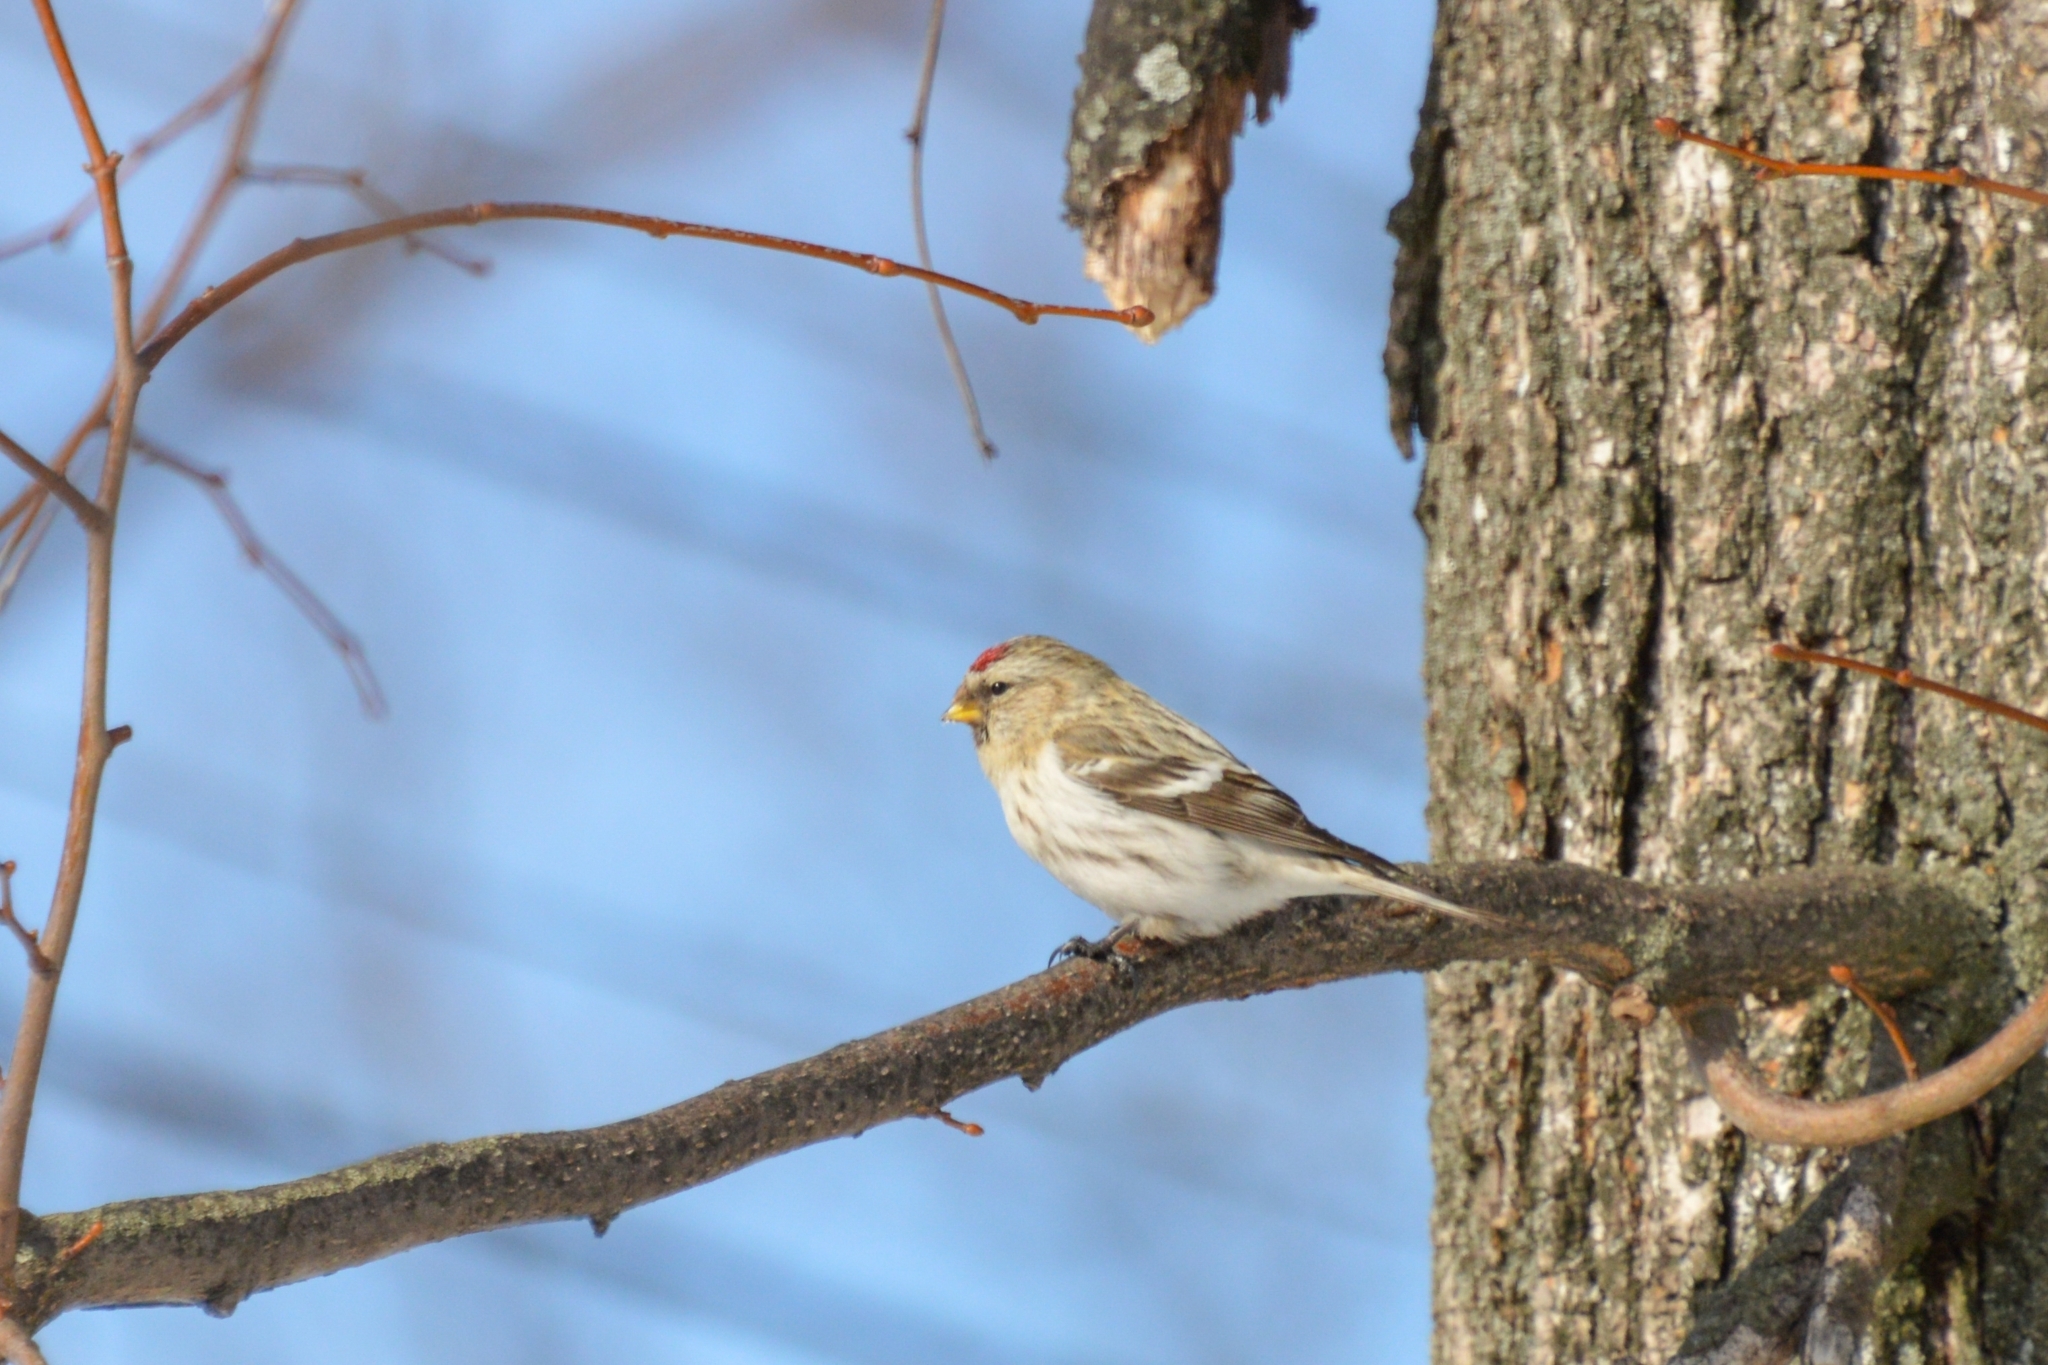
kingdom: Animalia
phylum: Chordata
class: Aves
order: Passeriformes
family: Fringillidae
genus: Acanthis
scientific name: Acanthis hornemanni
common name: Arctic redpoll
